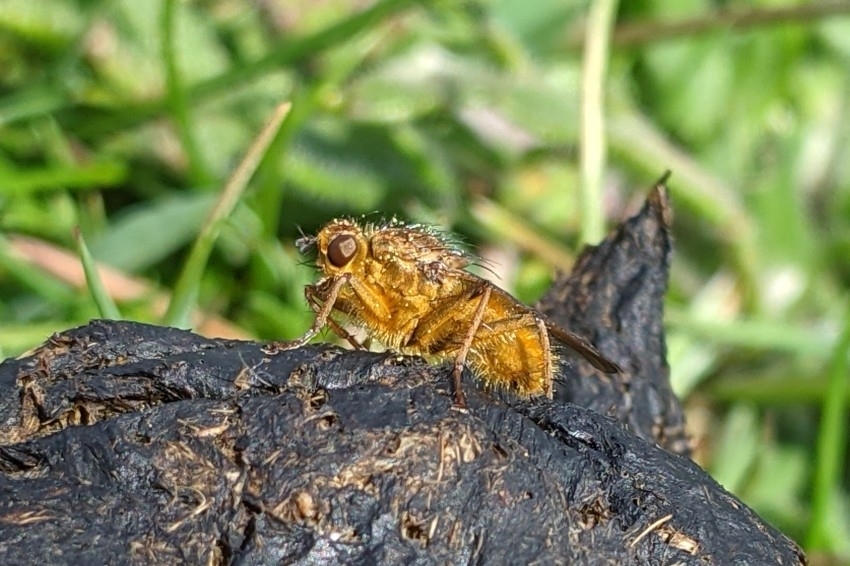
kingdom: Animalia
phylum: Arthropoda
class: Insecta
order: Diptera
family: Scathophagidae
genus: Scathophaga
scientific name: Scathophaga stercoraria
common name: Yellow dung fly
